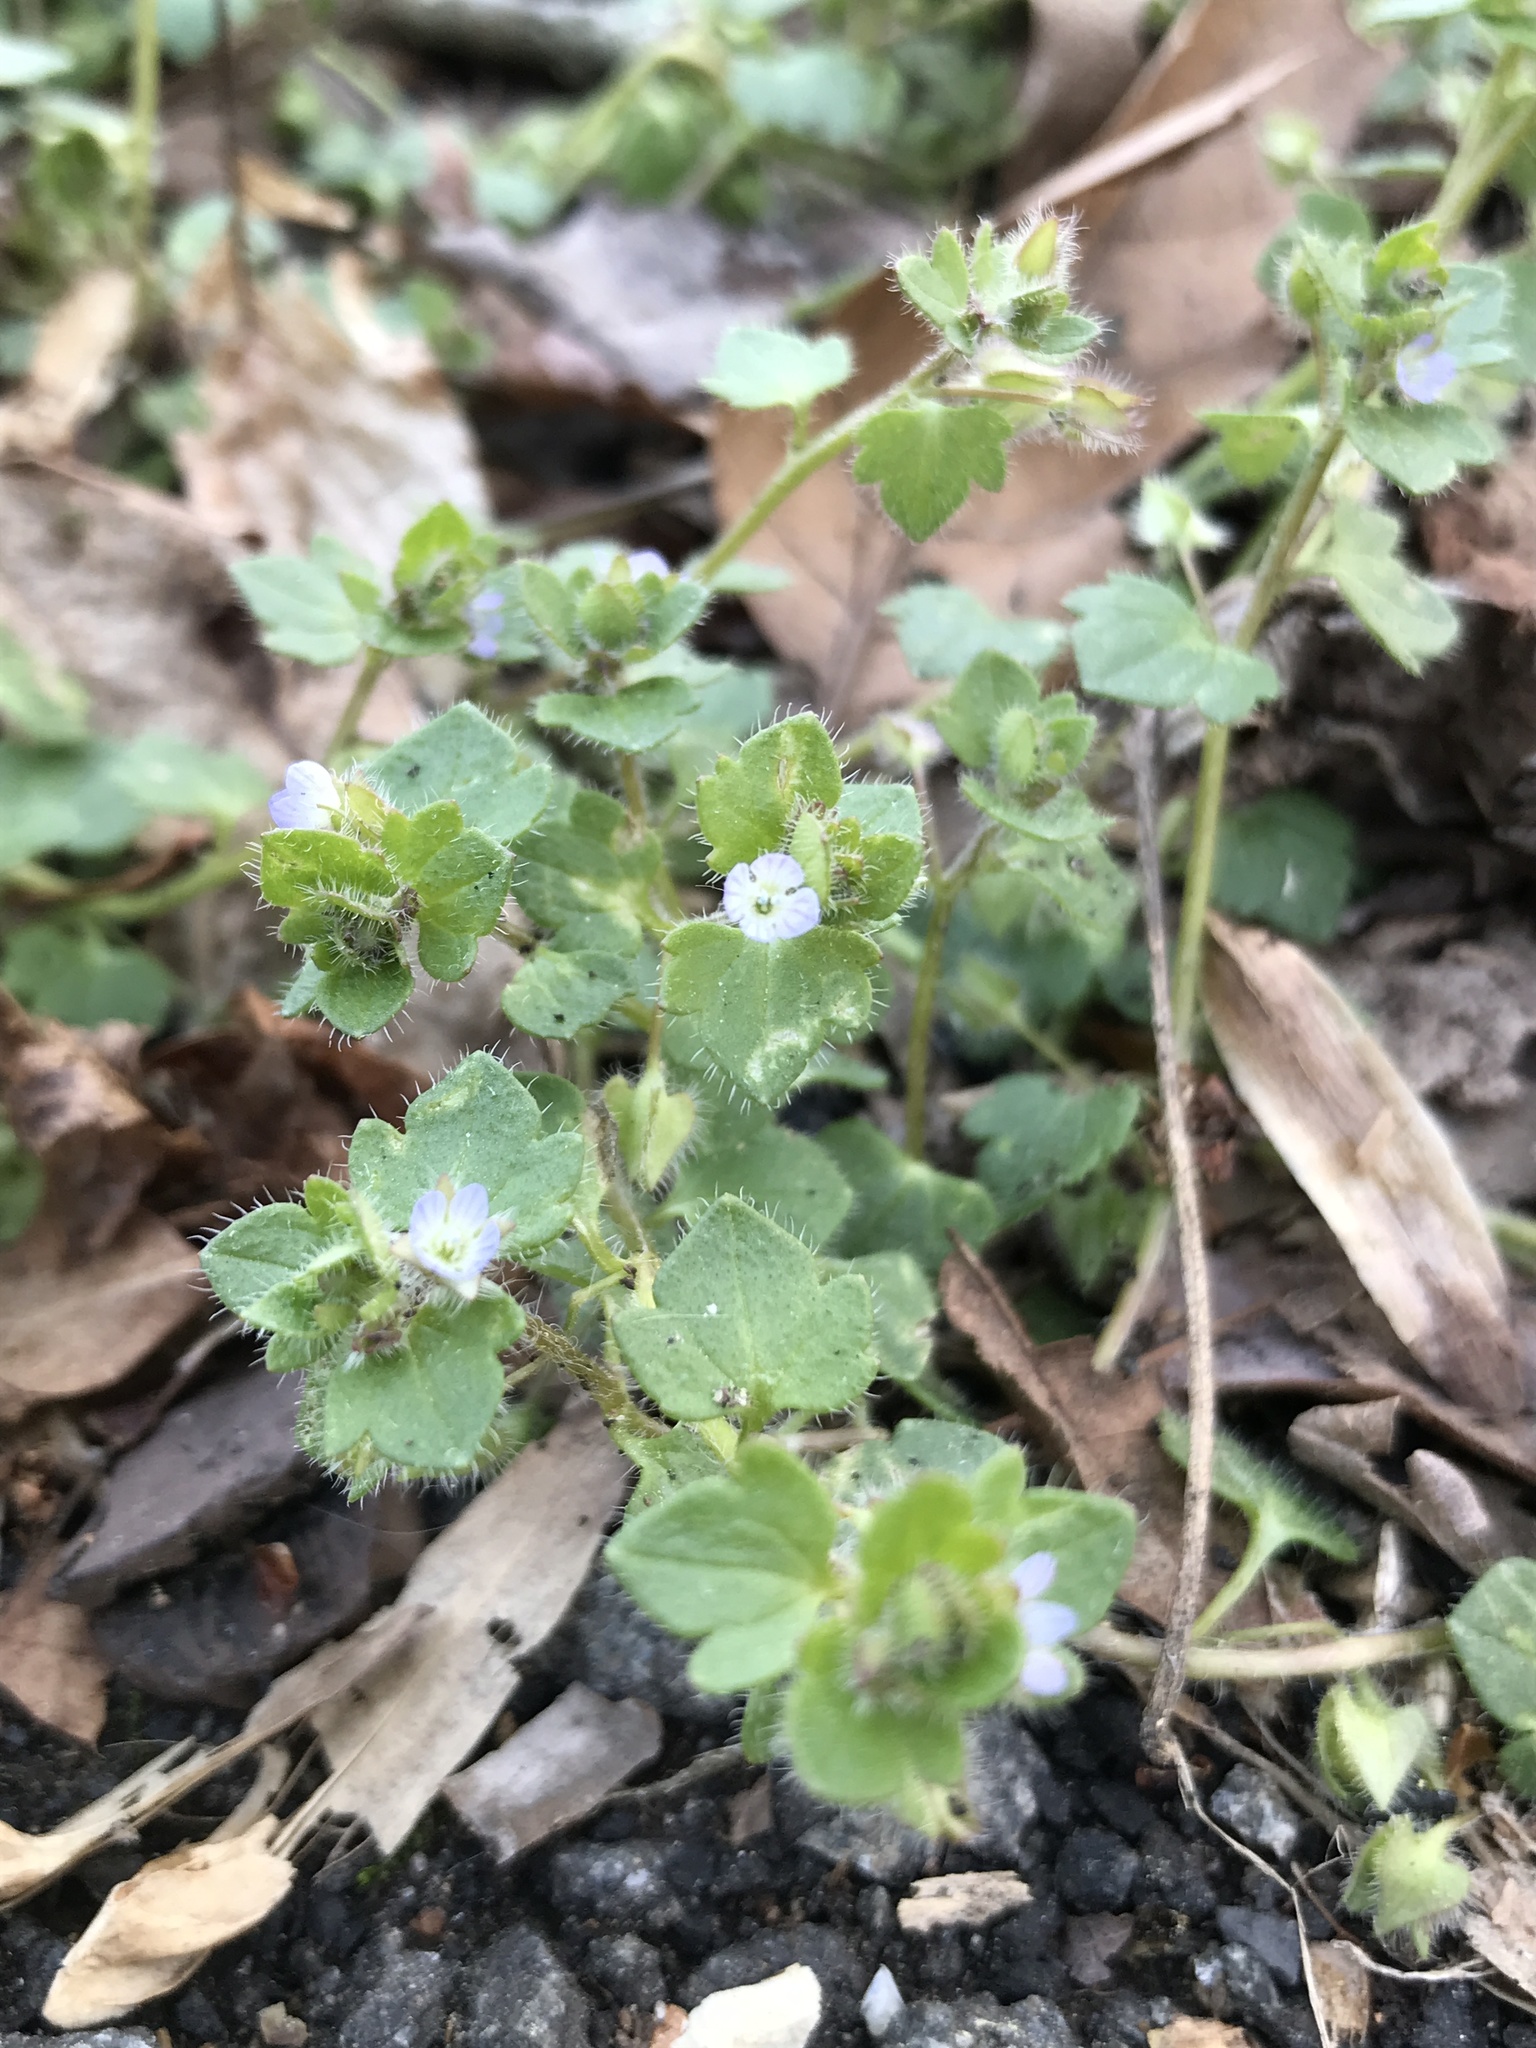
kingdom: Plantae
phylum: Tracheophyta
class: Magnoliopsida
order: Lamiales
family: Plantaginaceae
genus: Veronica
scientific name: Veronica hederifolia
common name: Ivy-leaved speedwell
